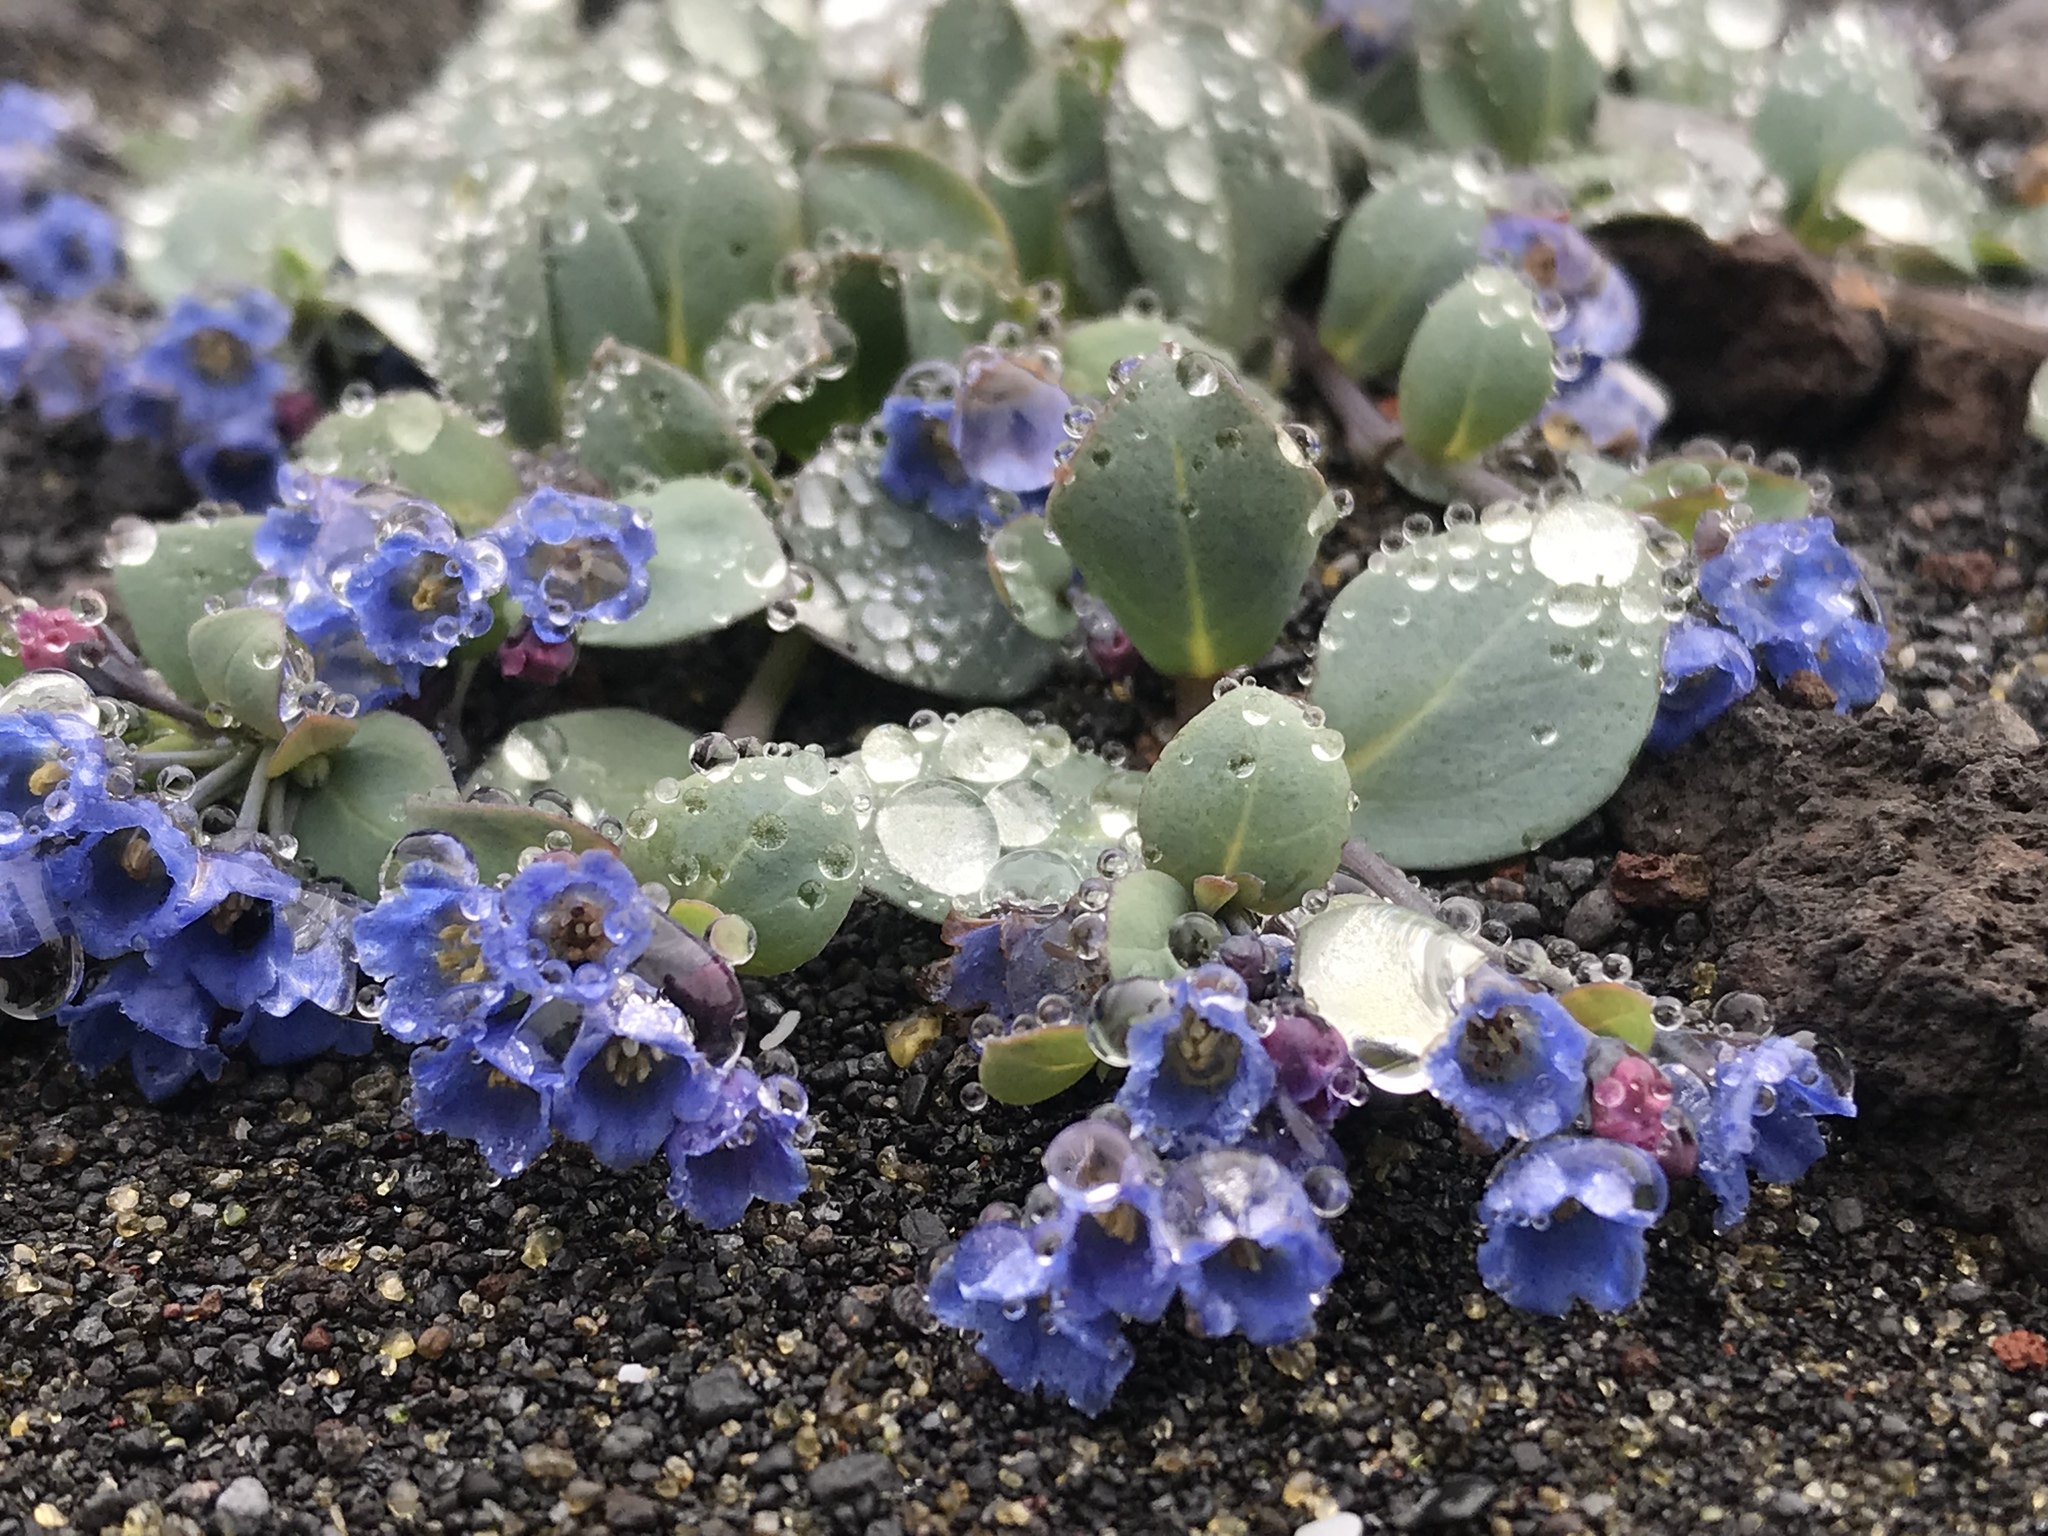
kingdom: Plantae
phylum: Tracheophyta
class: Magnoliopsida
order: Boraginales
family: Boraginaceae
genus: Mertensia
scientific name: Mertensia maritima
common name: Oysterplant
